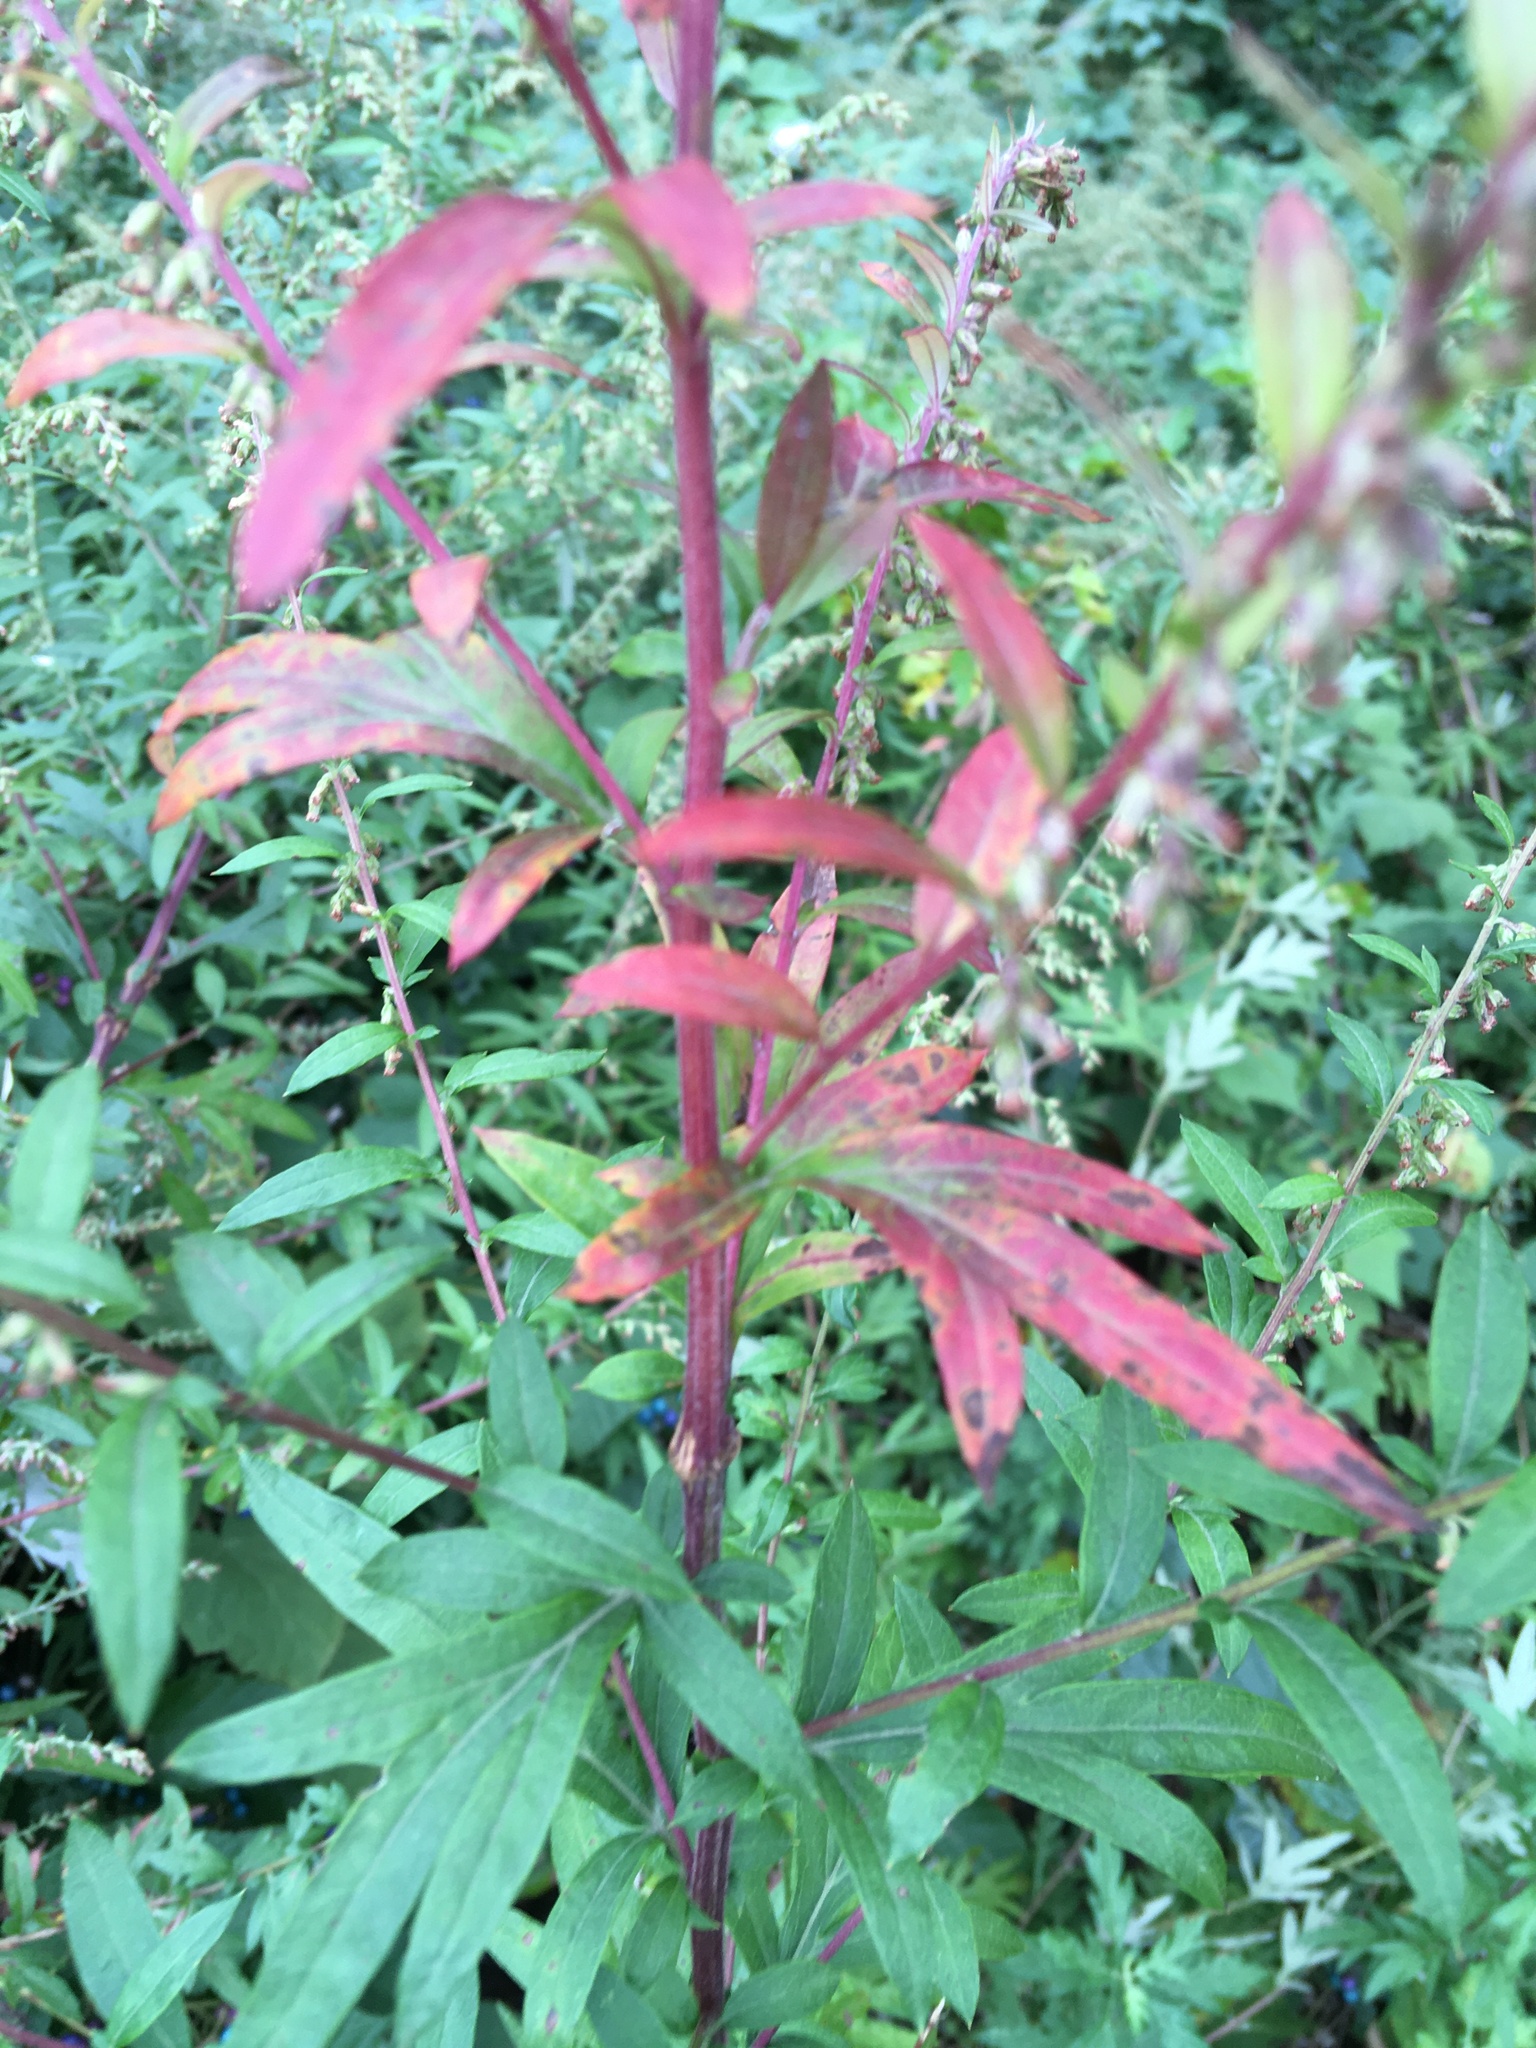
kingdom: Plantae
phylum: Tracheophyta
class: Magnoliopsida
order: Asterales
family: Asteraceae
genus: Artemisia
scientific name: Artemisia vulgaris
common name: Mugwort
